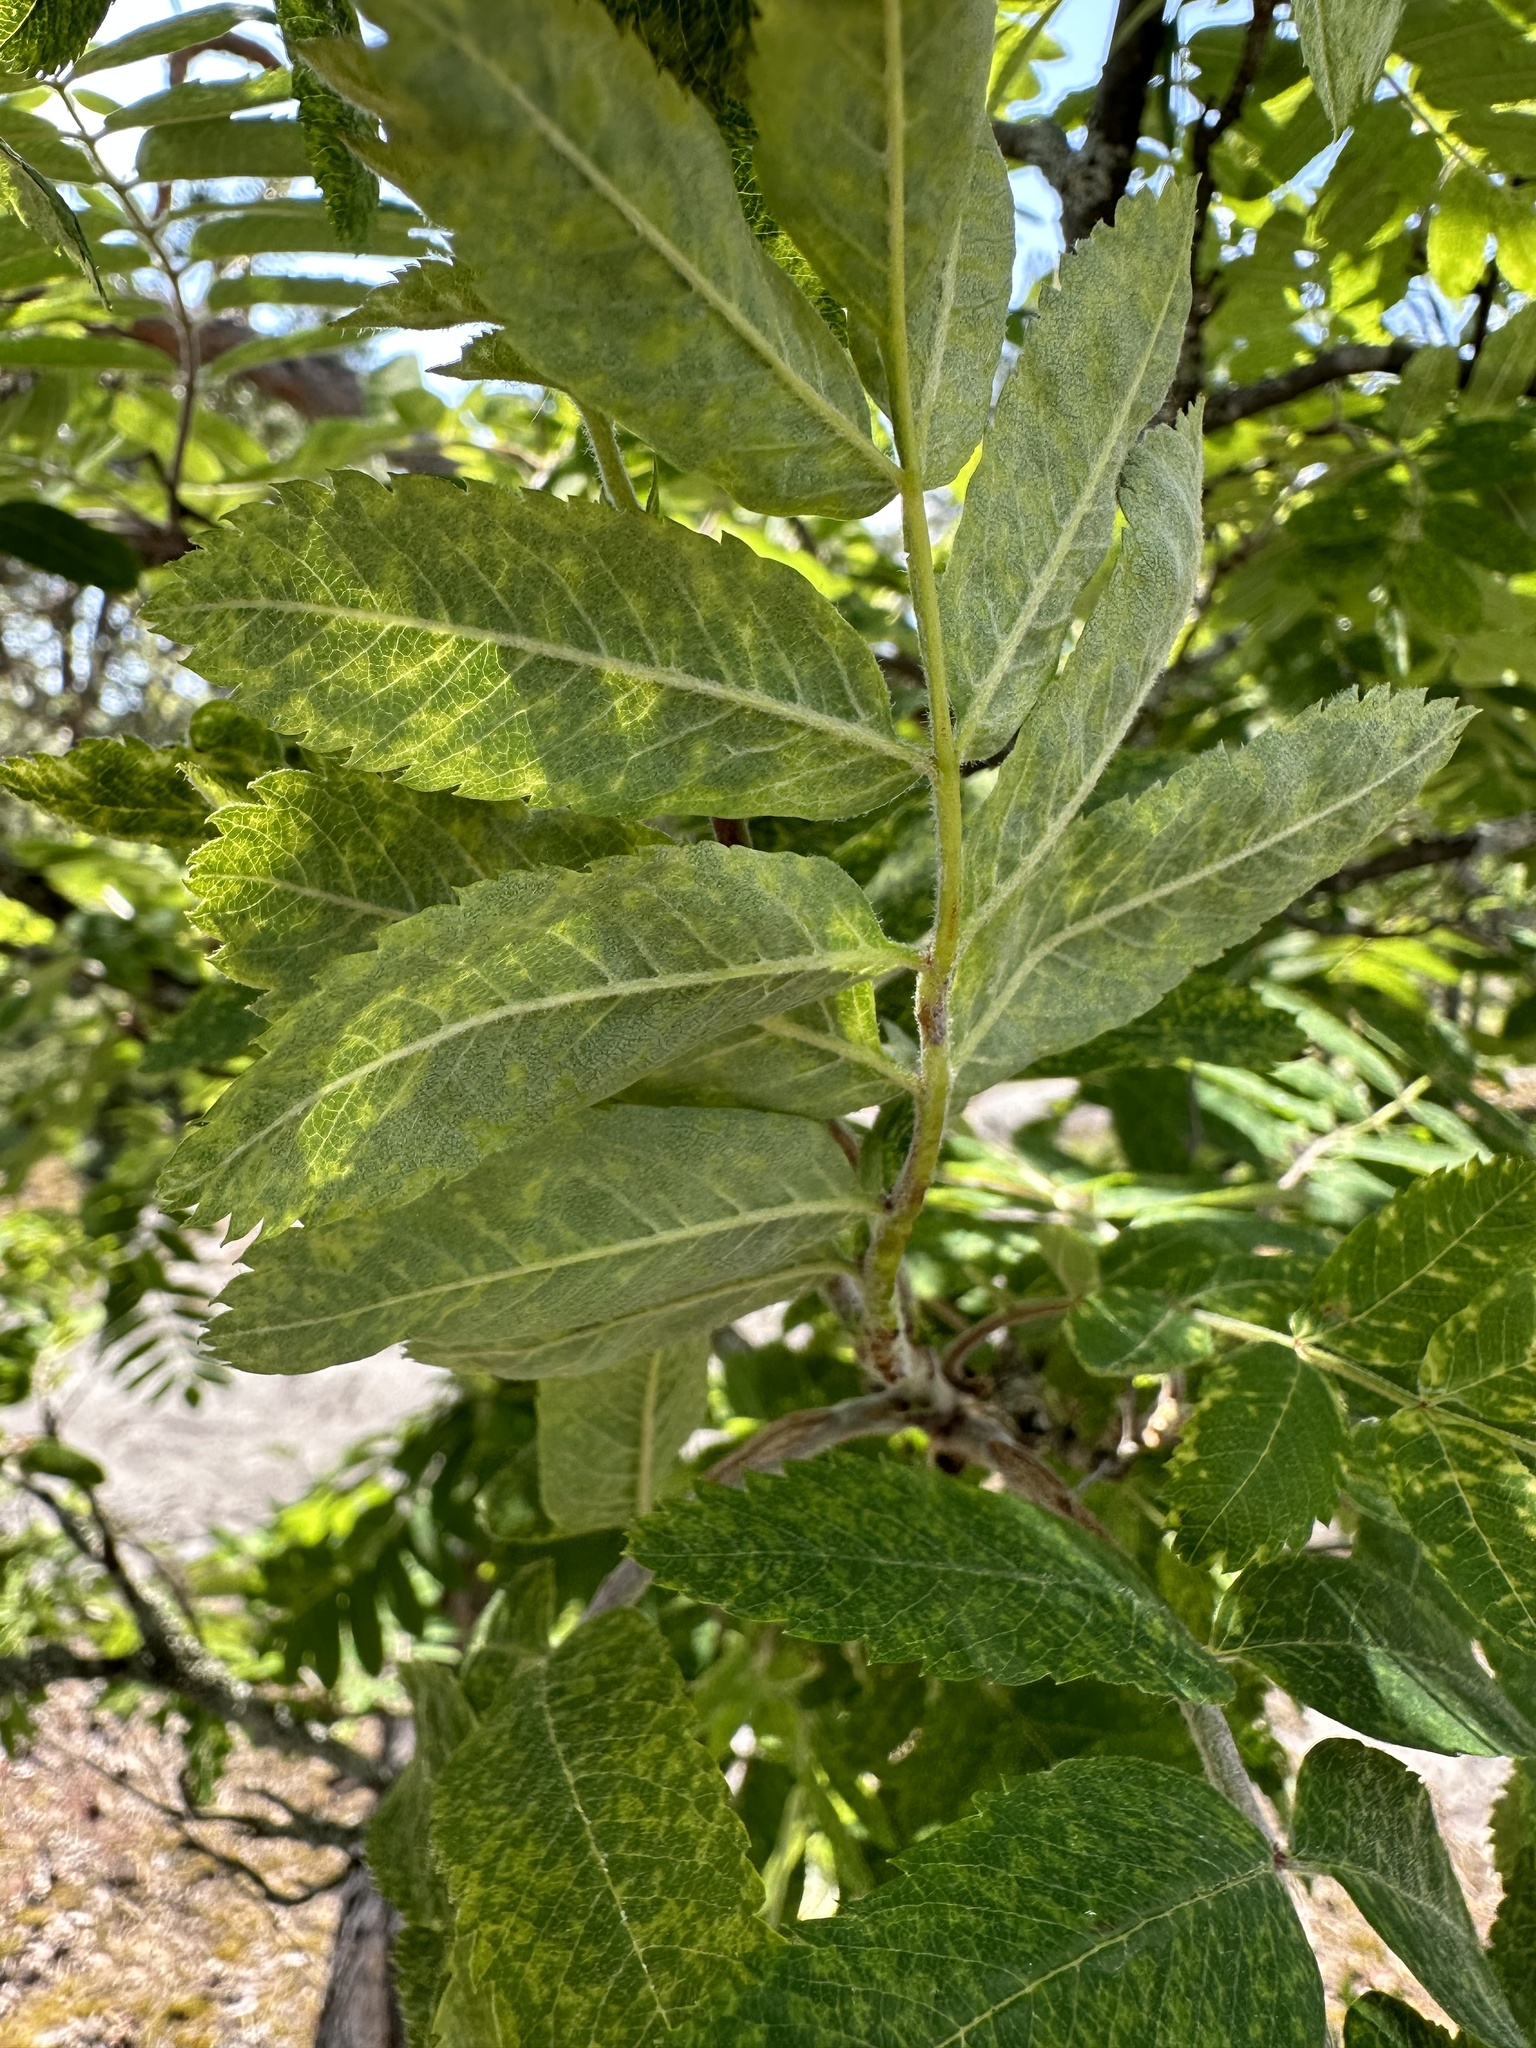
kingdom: Viruses
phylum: Negarnaviricota
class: Ellioviricetes
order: Bunyavirales
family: Fimoviridae
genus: Emaravirus
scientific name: Emaravirus sorbi
